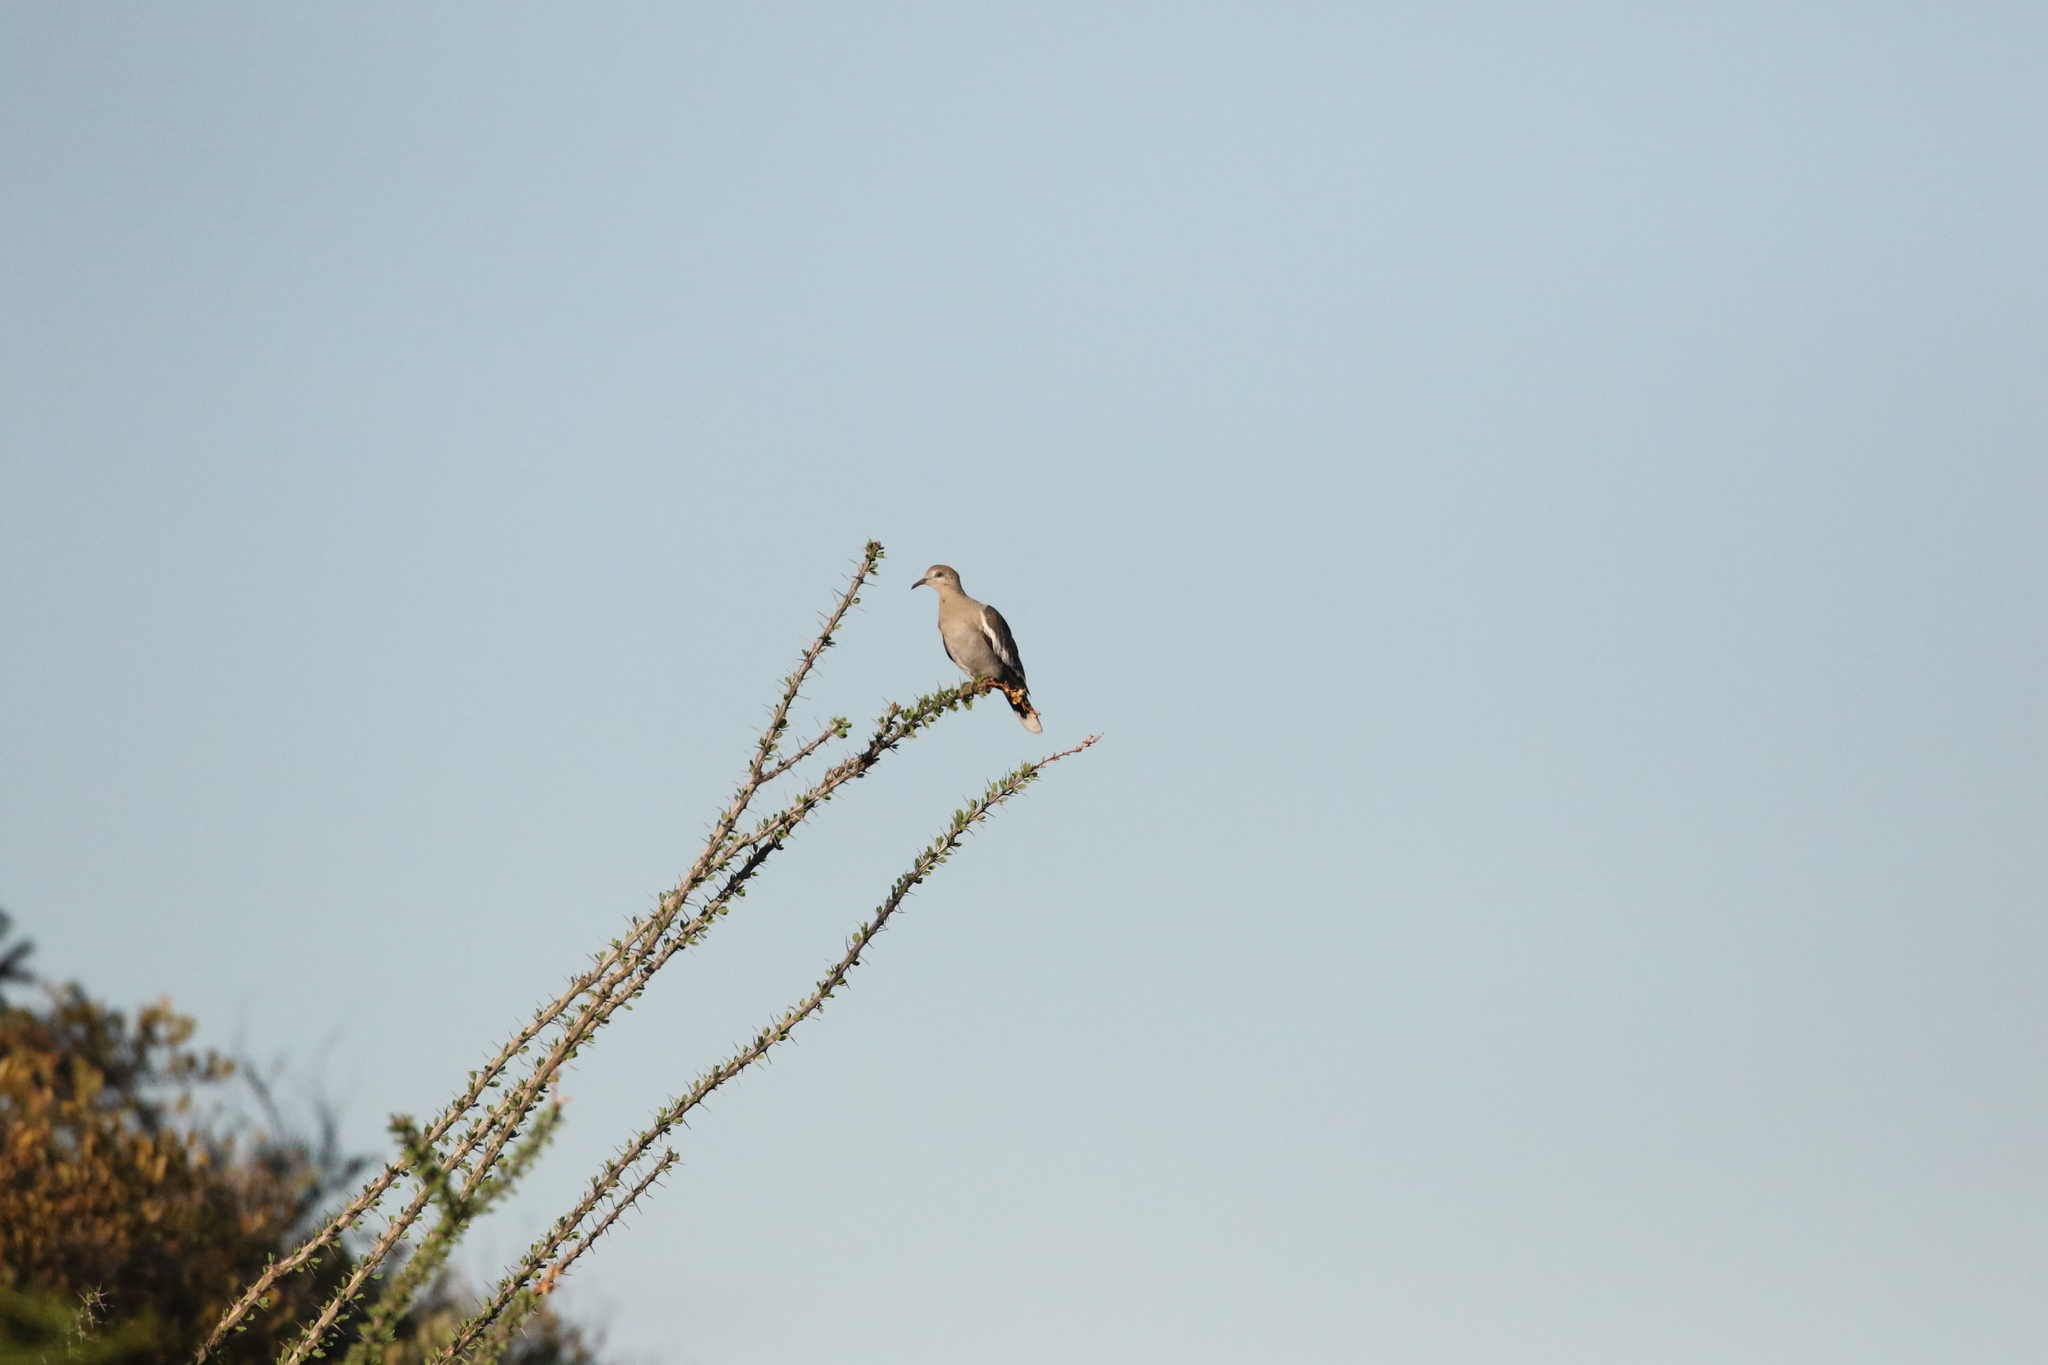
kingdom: Animalia
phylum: Chordata
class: Aves
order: Columbiformes
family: Columbidae
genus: Zenaida
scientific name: Zenaida asiatica
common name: White-winged dove
